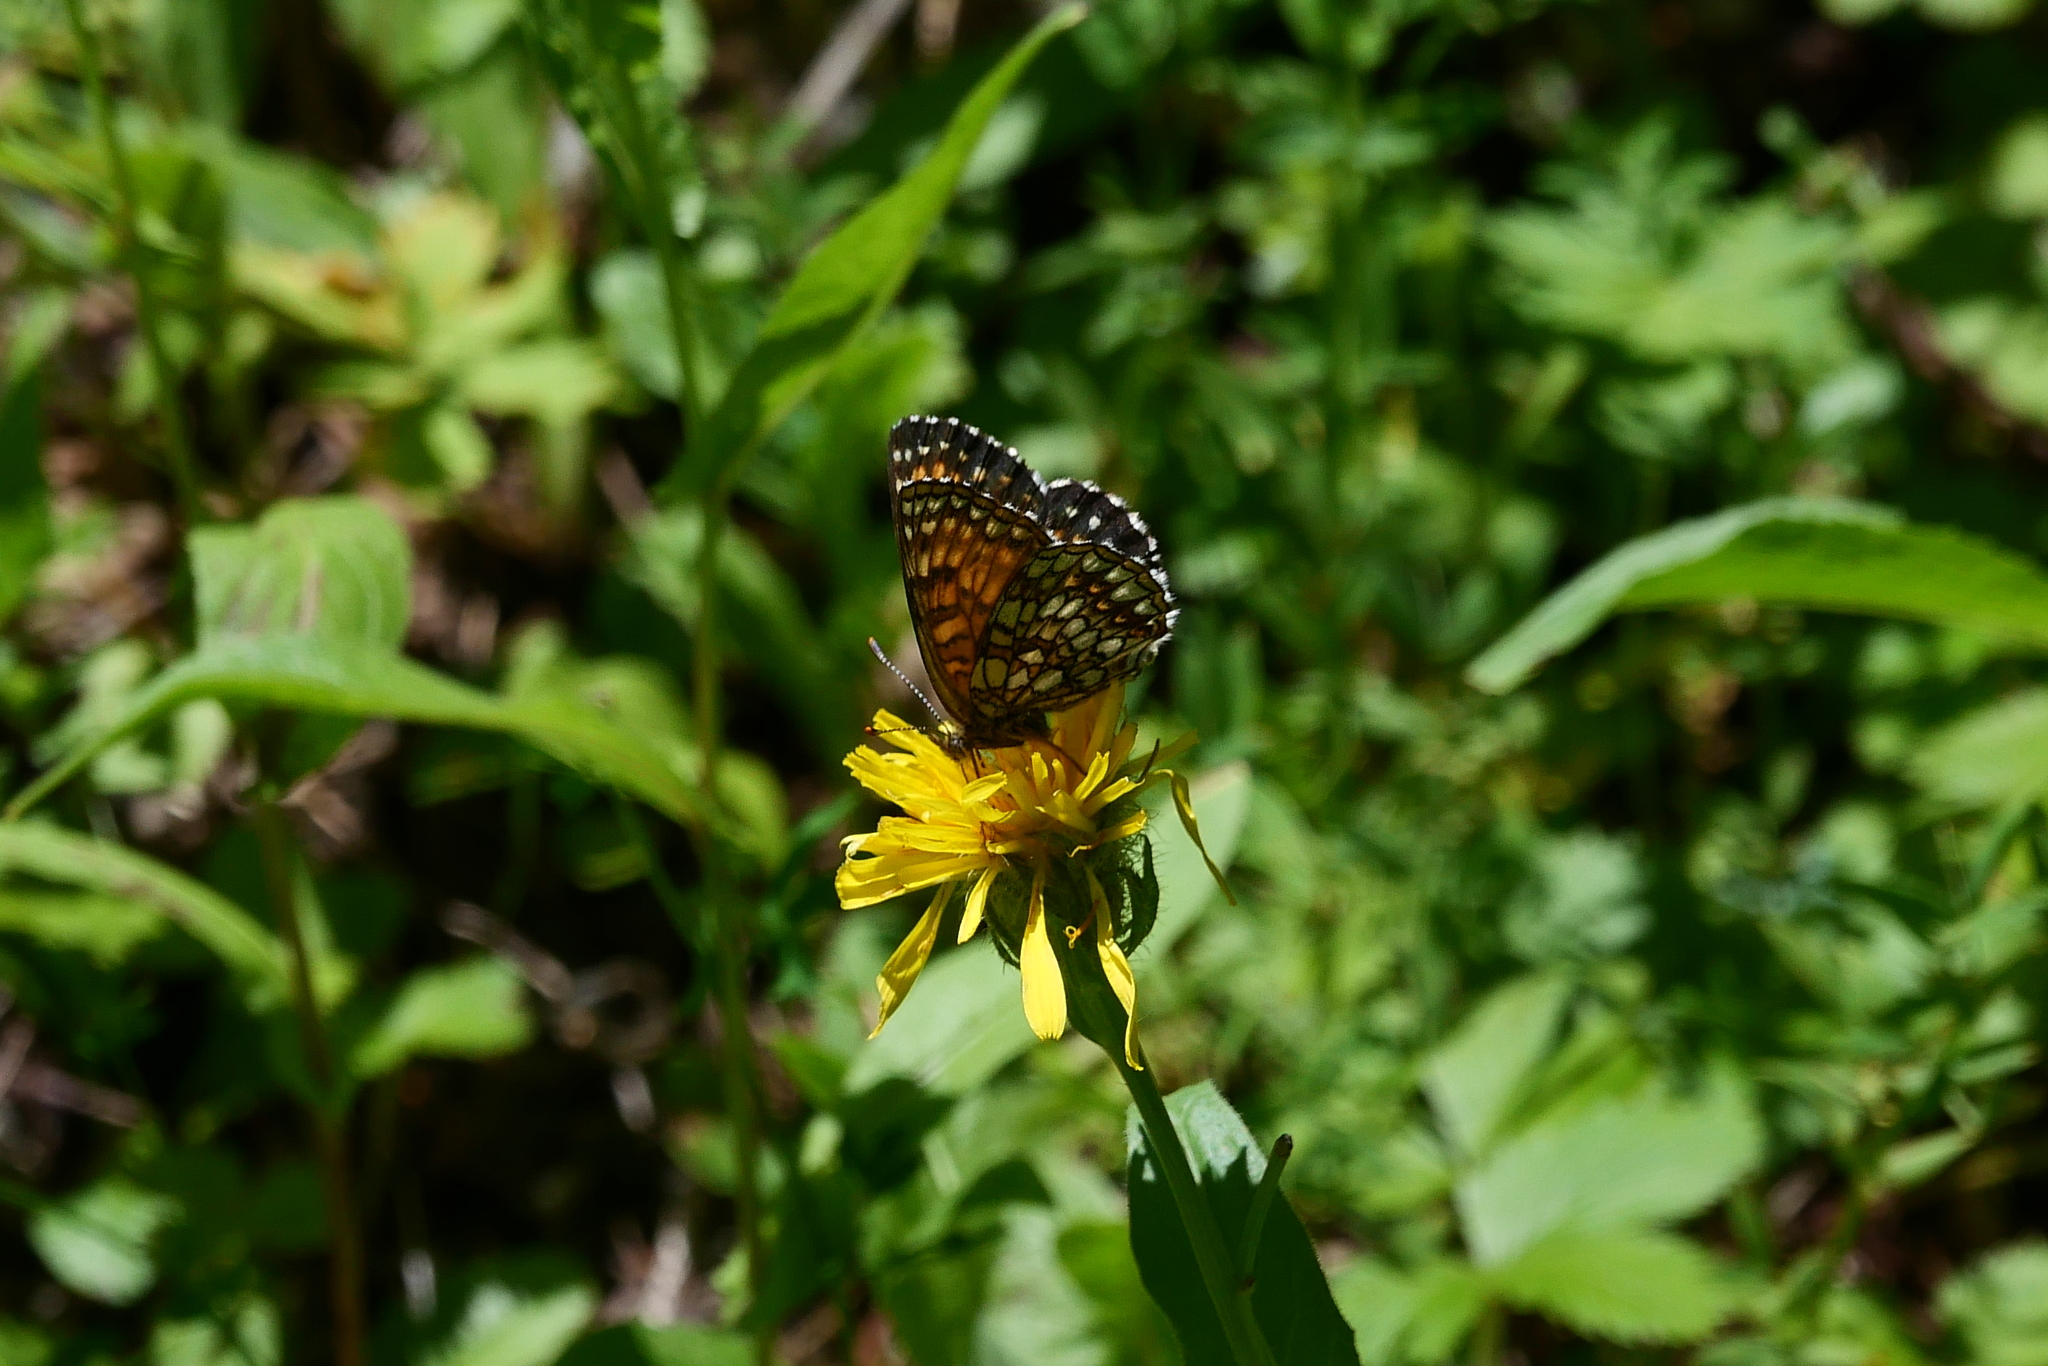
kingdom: Animalia
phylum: Arthropoda
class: Insecta
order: Lepidoptera
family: Nymphalidae
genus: Melitaea
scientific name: Melitaea diamina
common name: False heath fritillary
